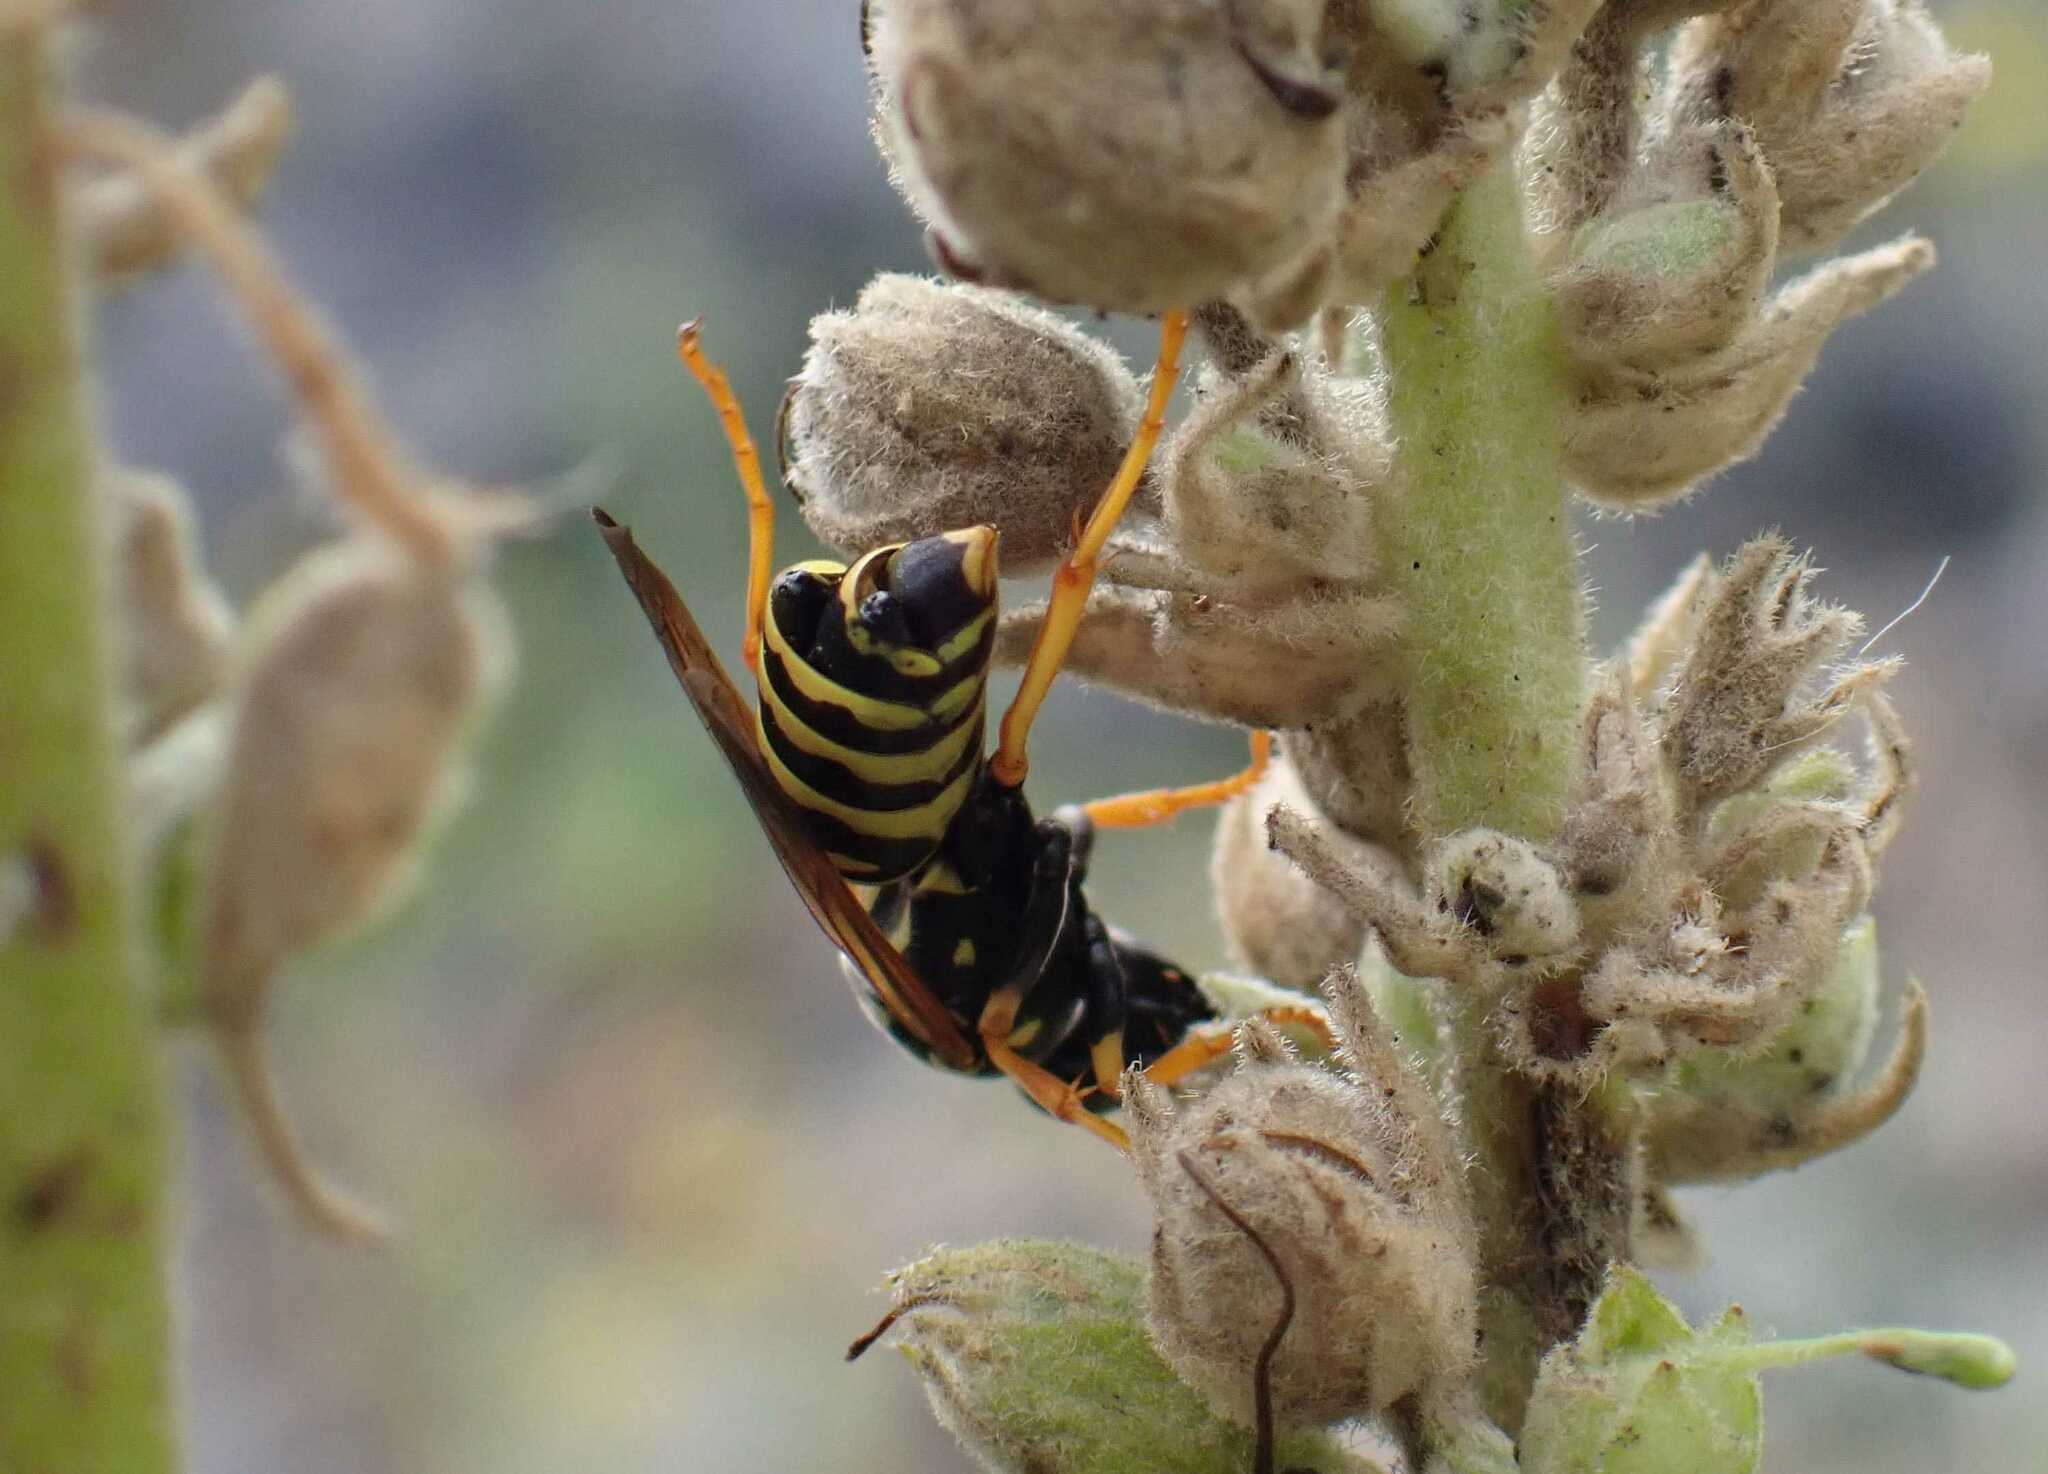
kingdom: Animalia
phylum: Arthropoda
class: Insecta
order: Strepsiptera
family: Xenidae
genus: Xenos
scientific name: Xenos vesparum
